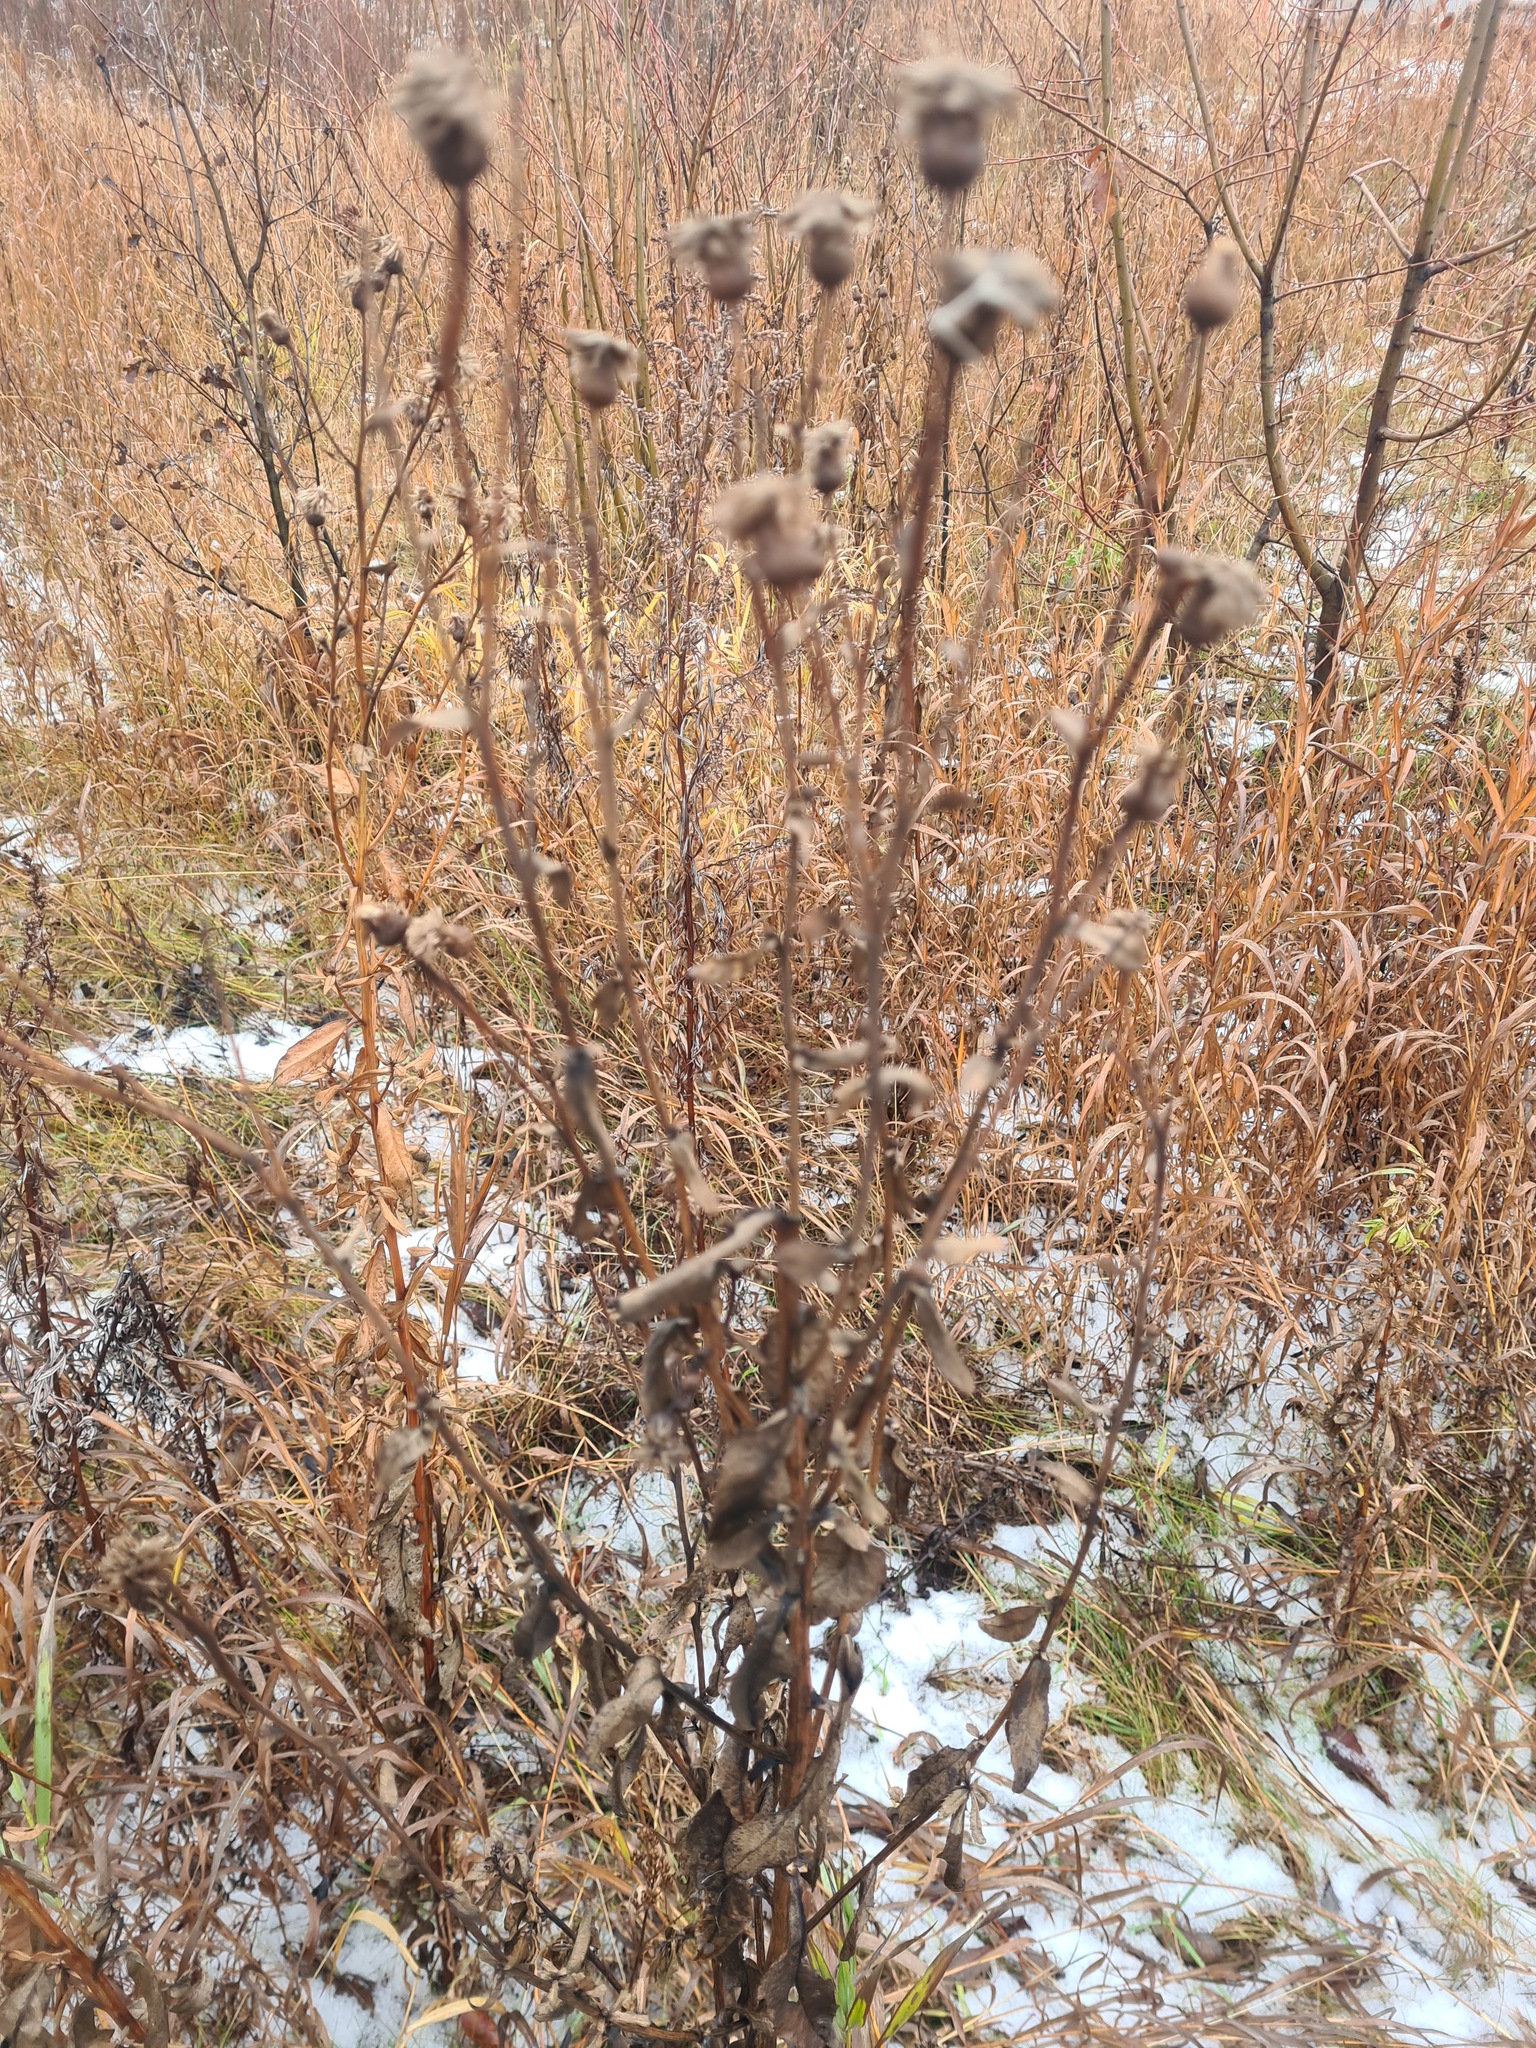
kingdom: Plantae
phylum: Tracheophyta
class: Magnoliopsida
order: Asterales
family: Asteraceae
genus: Cirsium
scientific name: Cirsium arvense
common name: Creeping thistle
